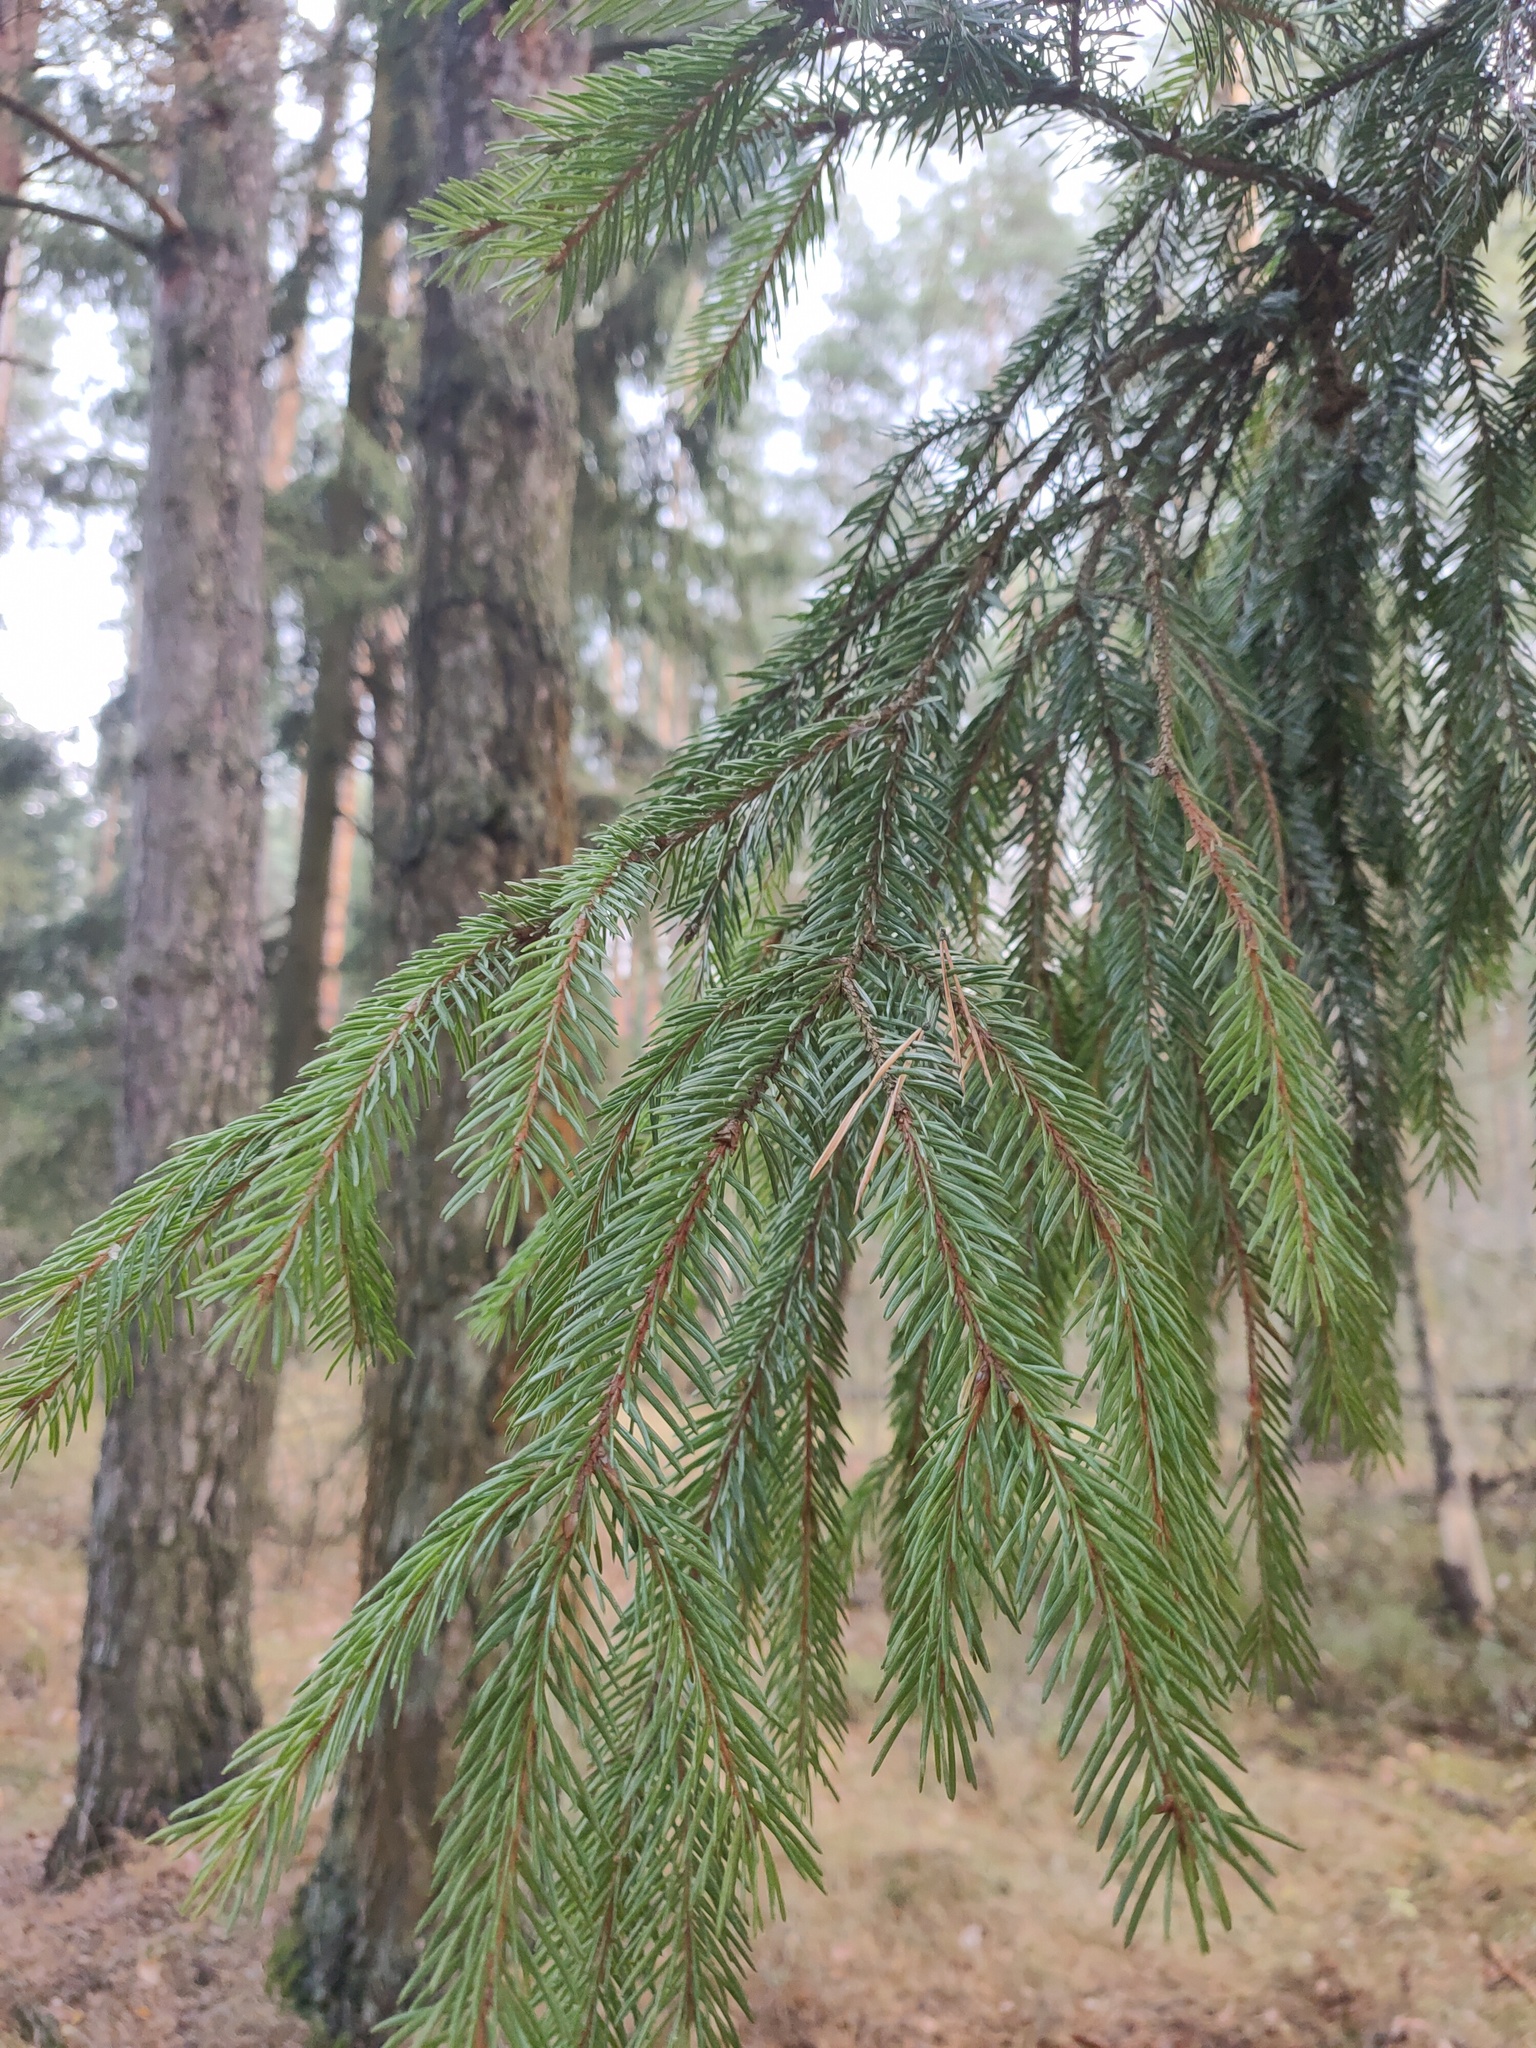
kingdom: Plantae
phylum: Tracheophyta
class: Pinopsida
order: Pinales
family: Pinaceae
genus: Picea
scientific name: Picea abies
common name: Norway spruce
